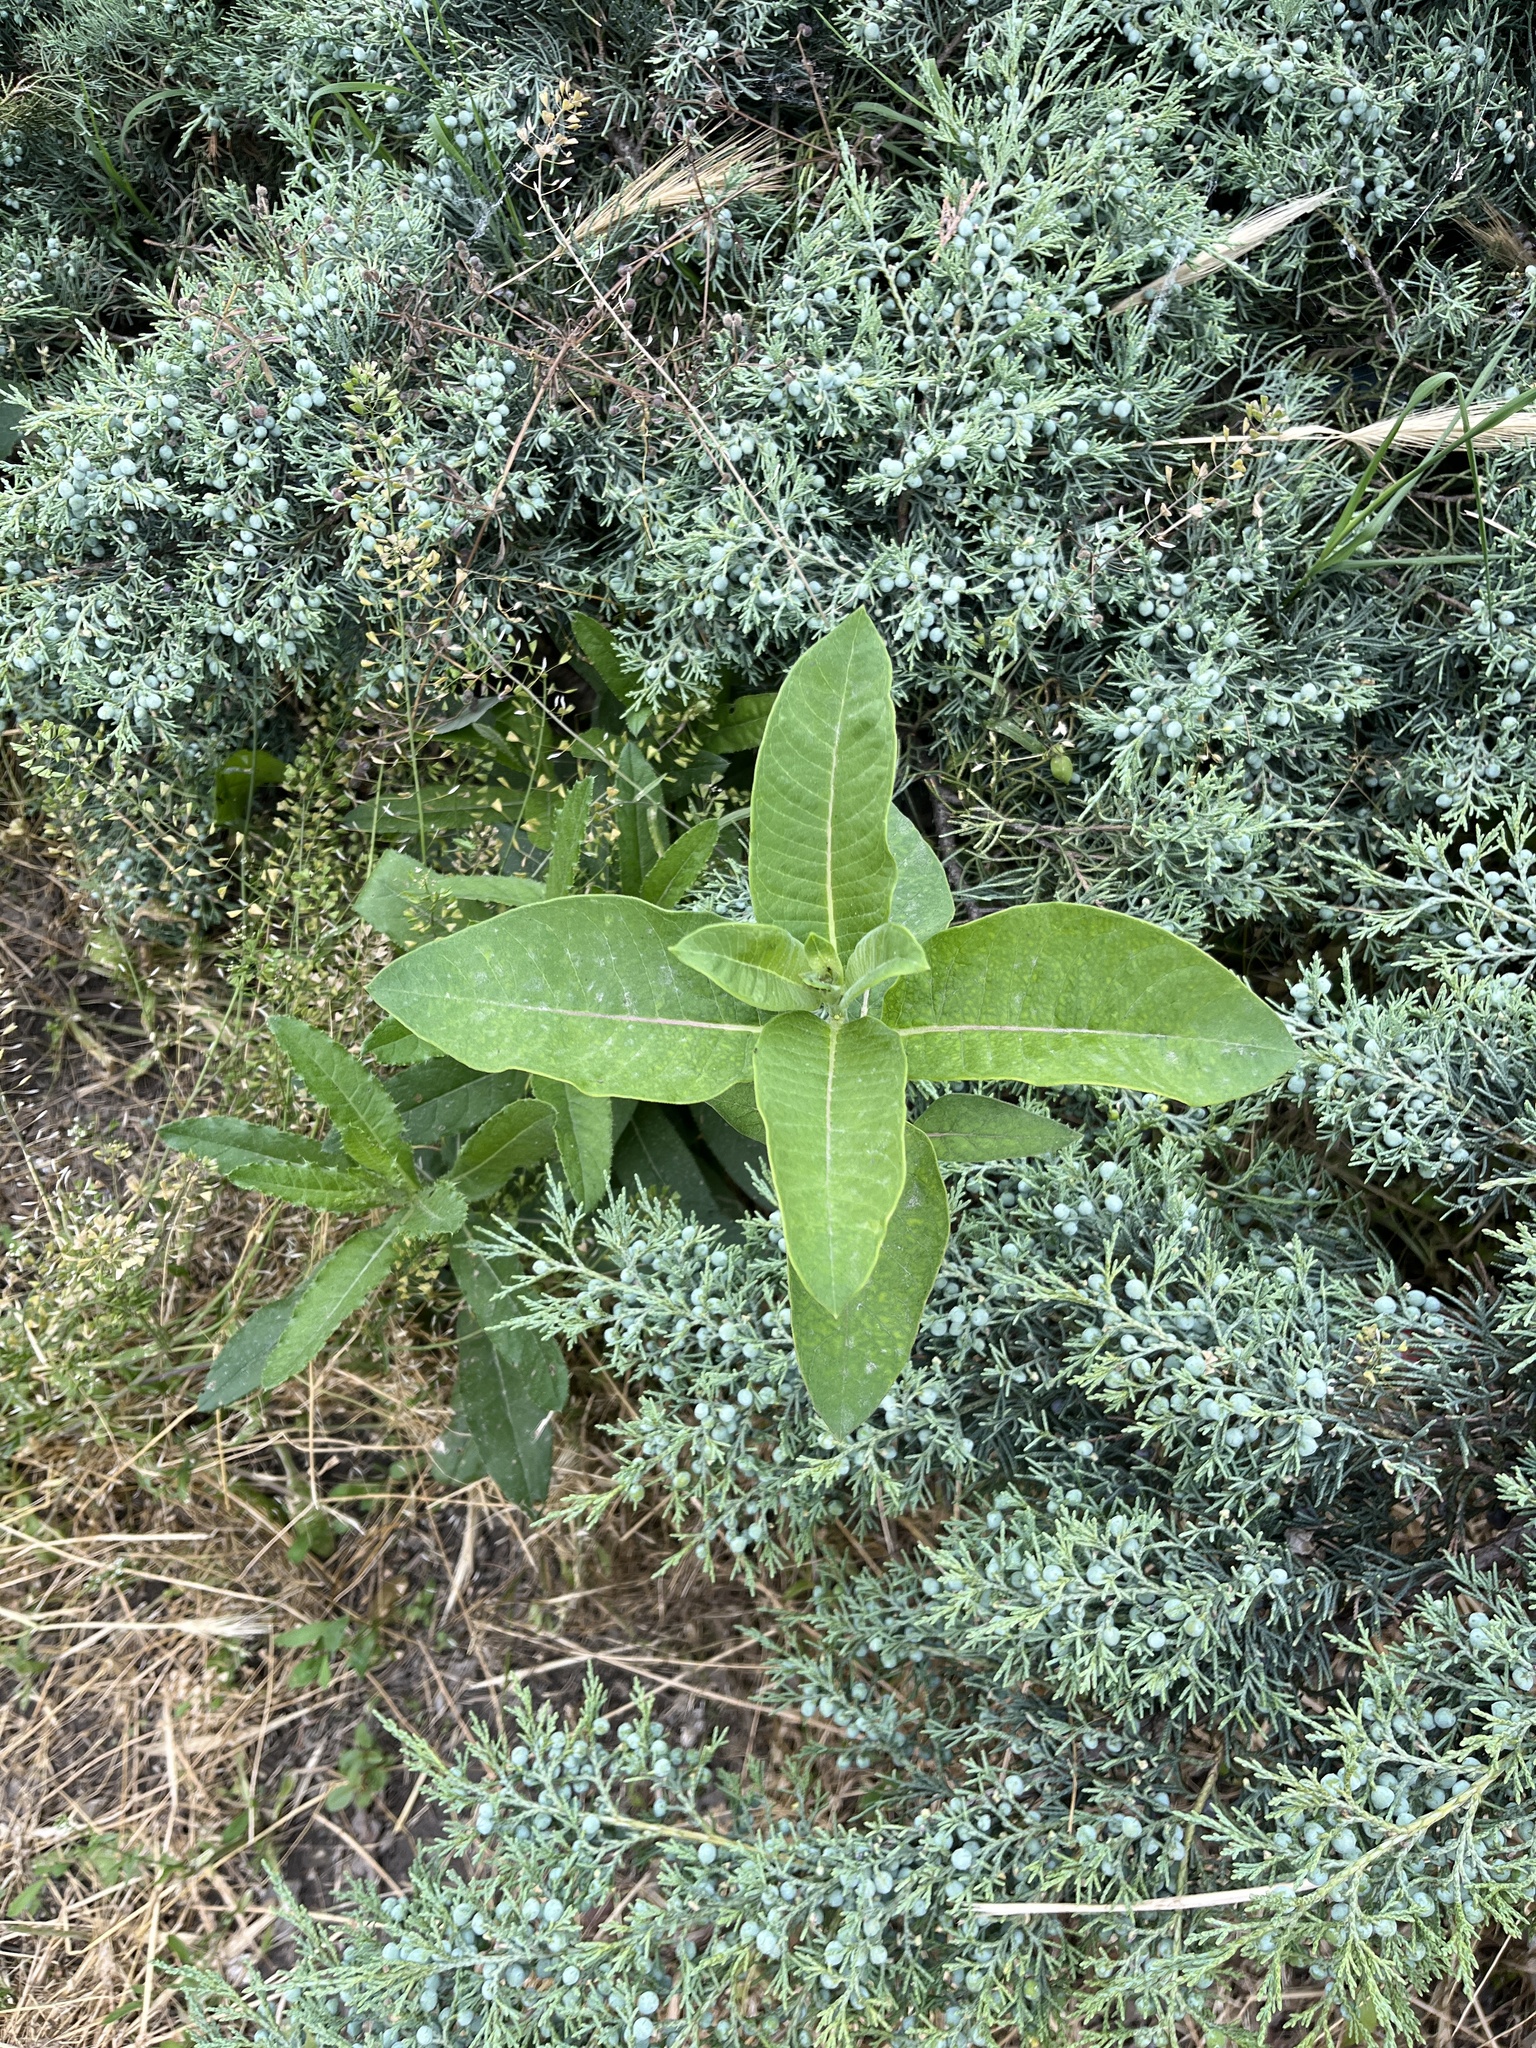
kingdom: Plantae
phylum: Tracheophyta
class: Magnoliopsida
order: Gentianales
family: Apocynaceae
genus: Asclepias
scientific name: Asclepias syriaca
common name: Common milkweed
